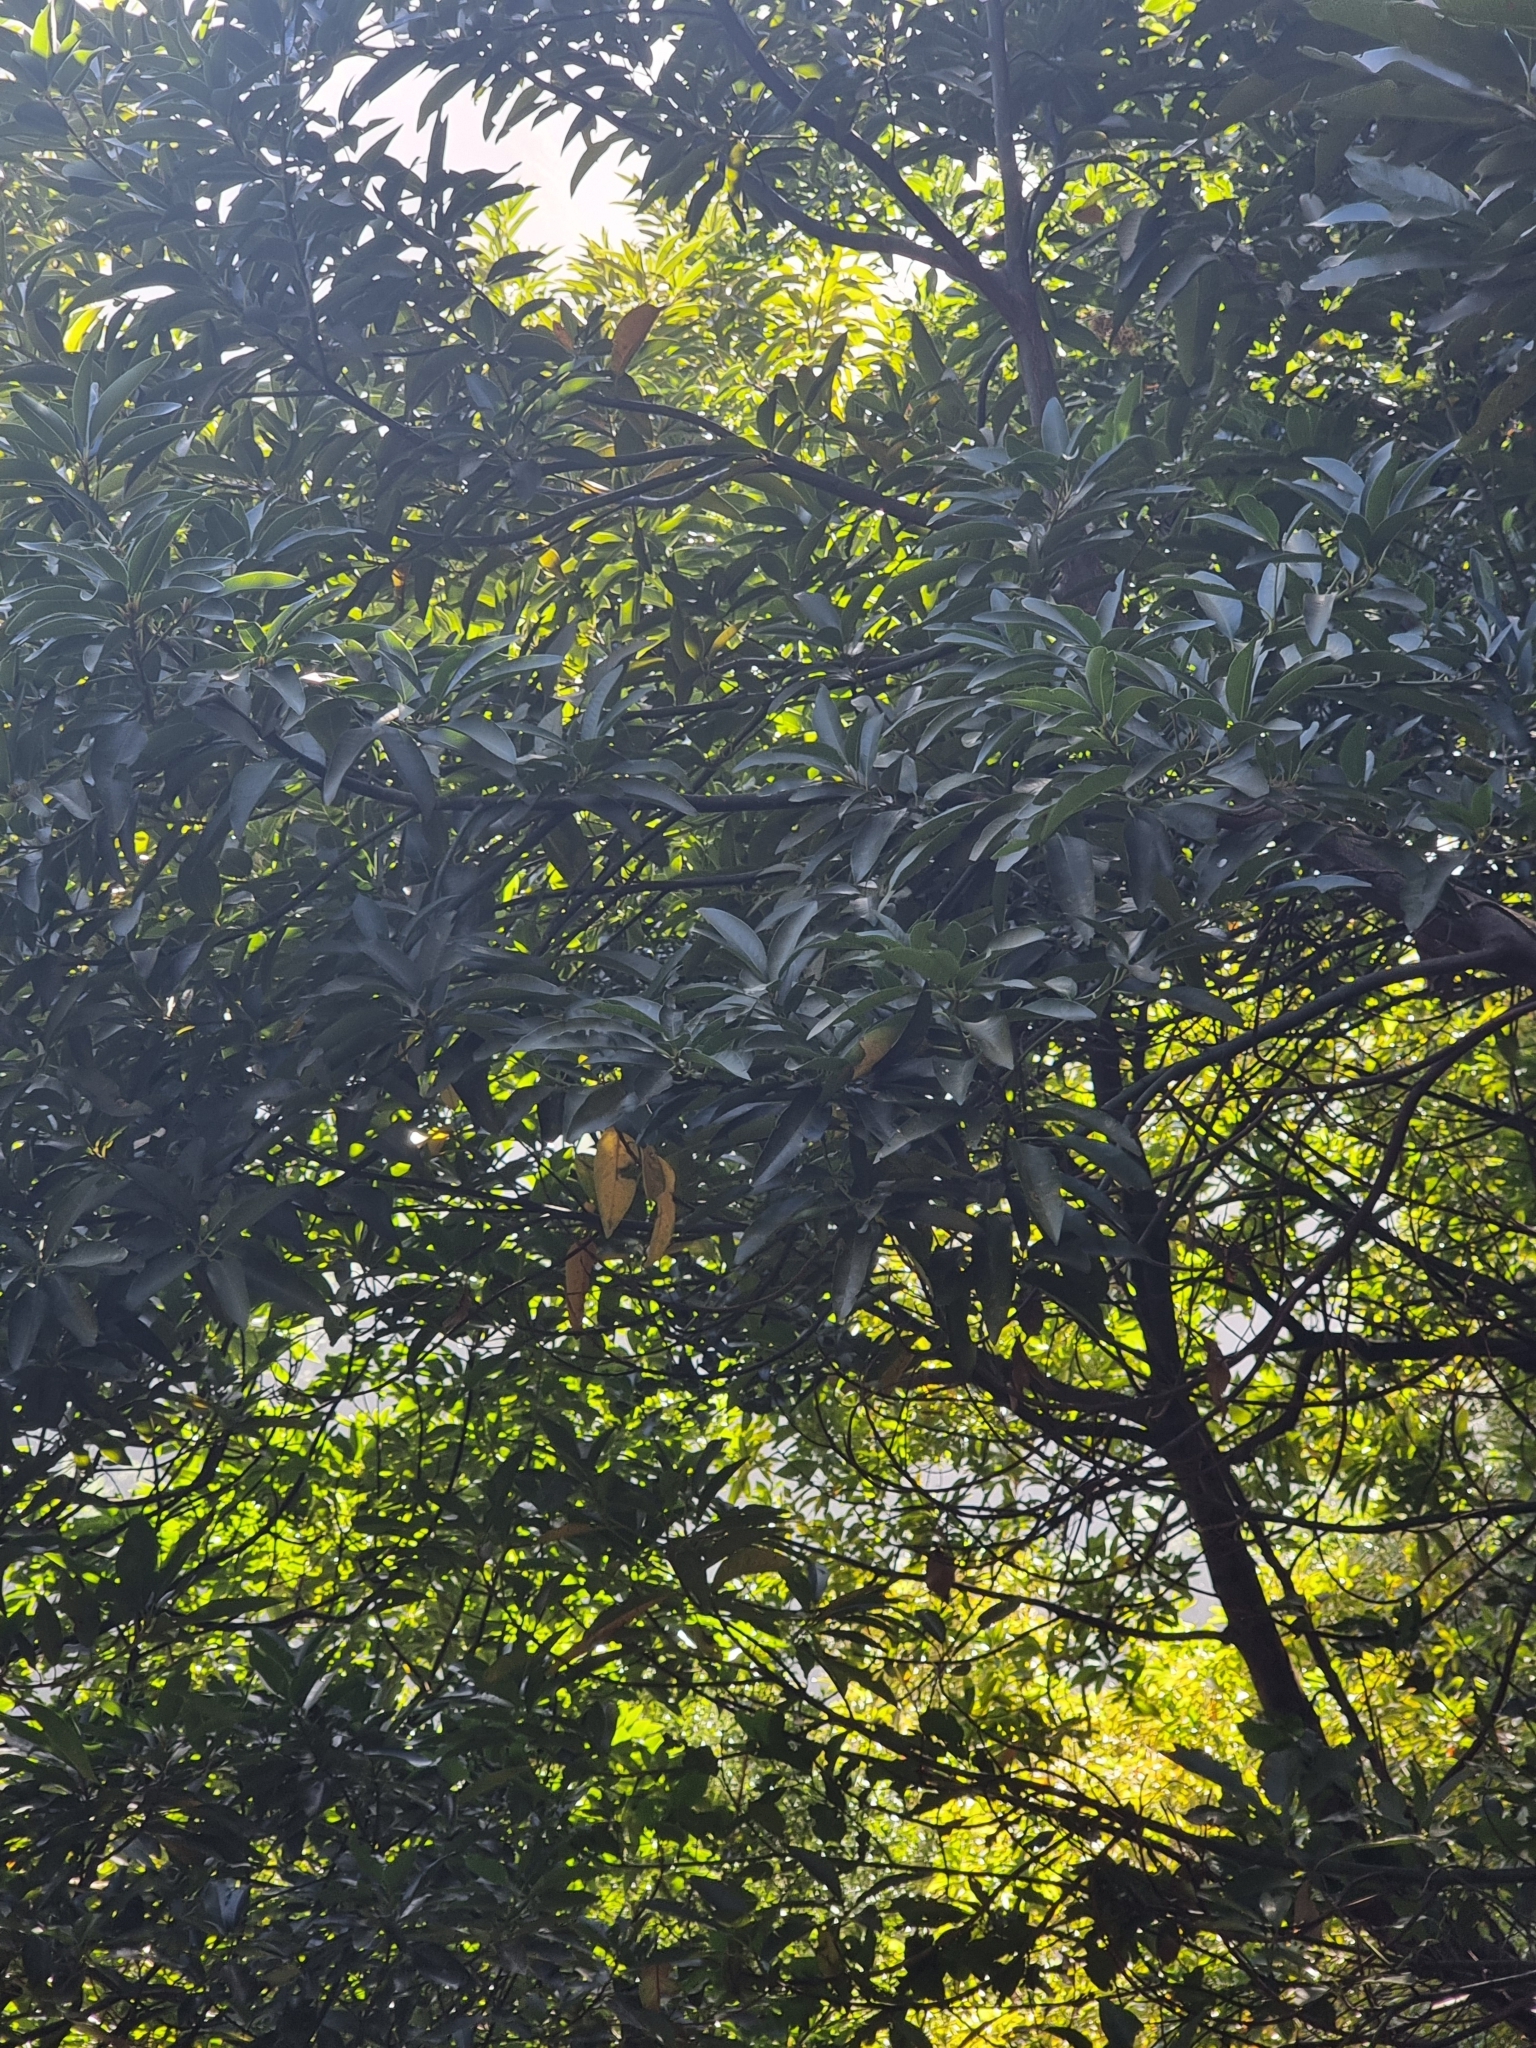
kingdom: Plantae
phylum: Tracheophyta
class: Magnoliopsida
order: Laurales
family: Lauraceae
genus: Persea
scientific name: Persea indica
